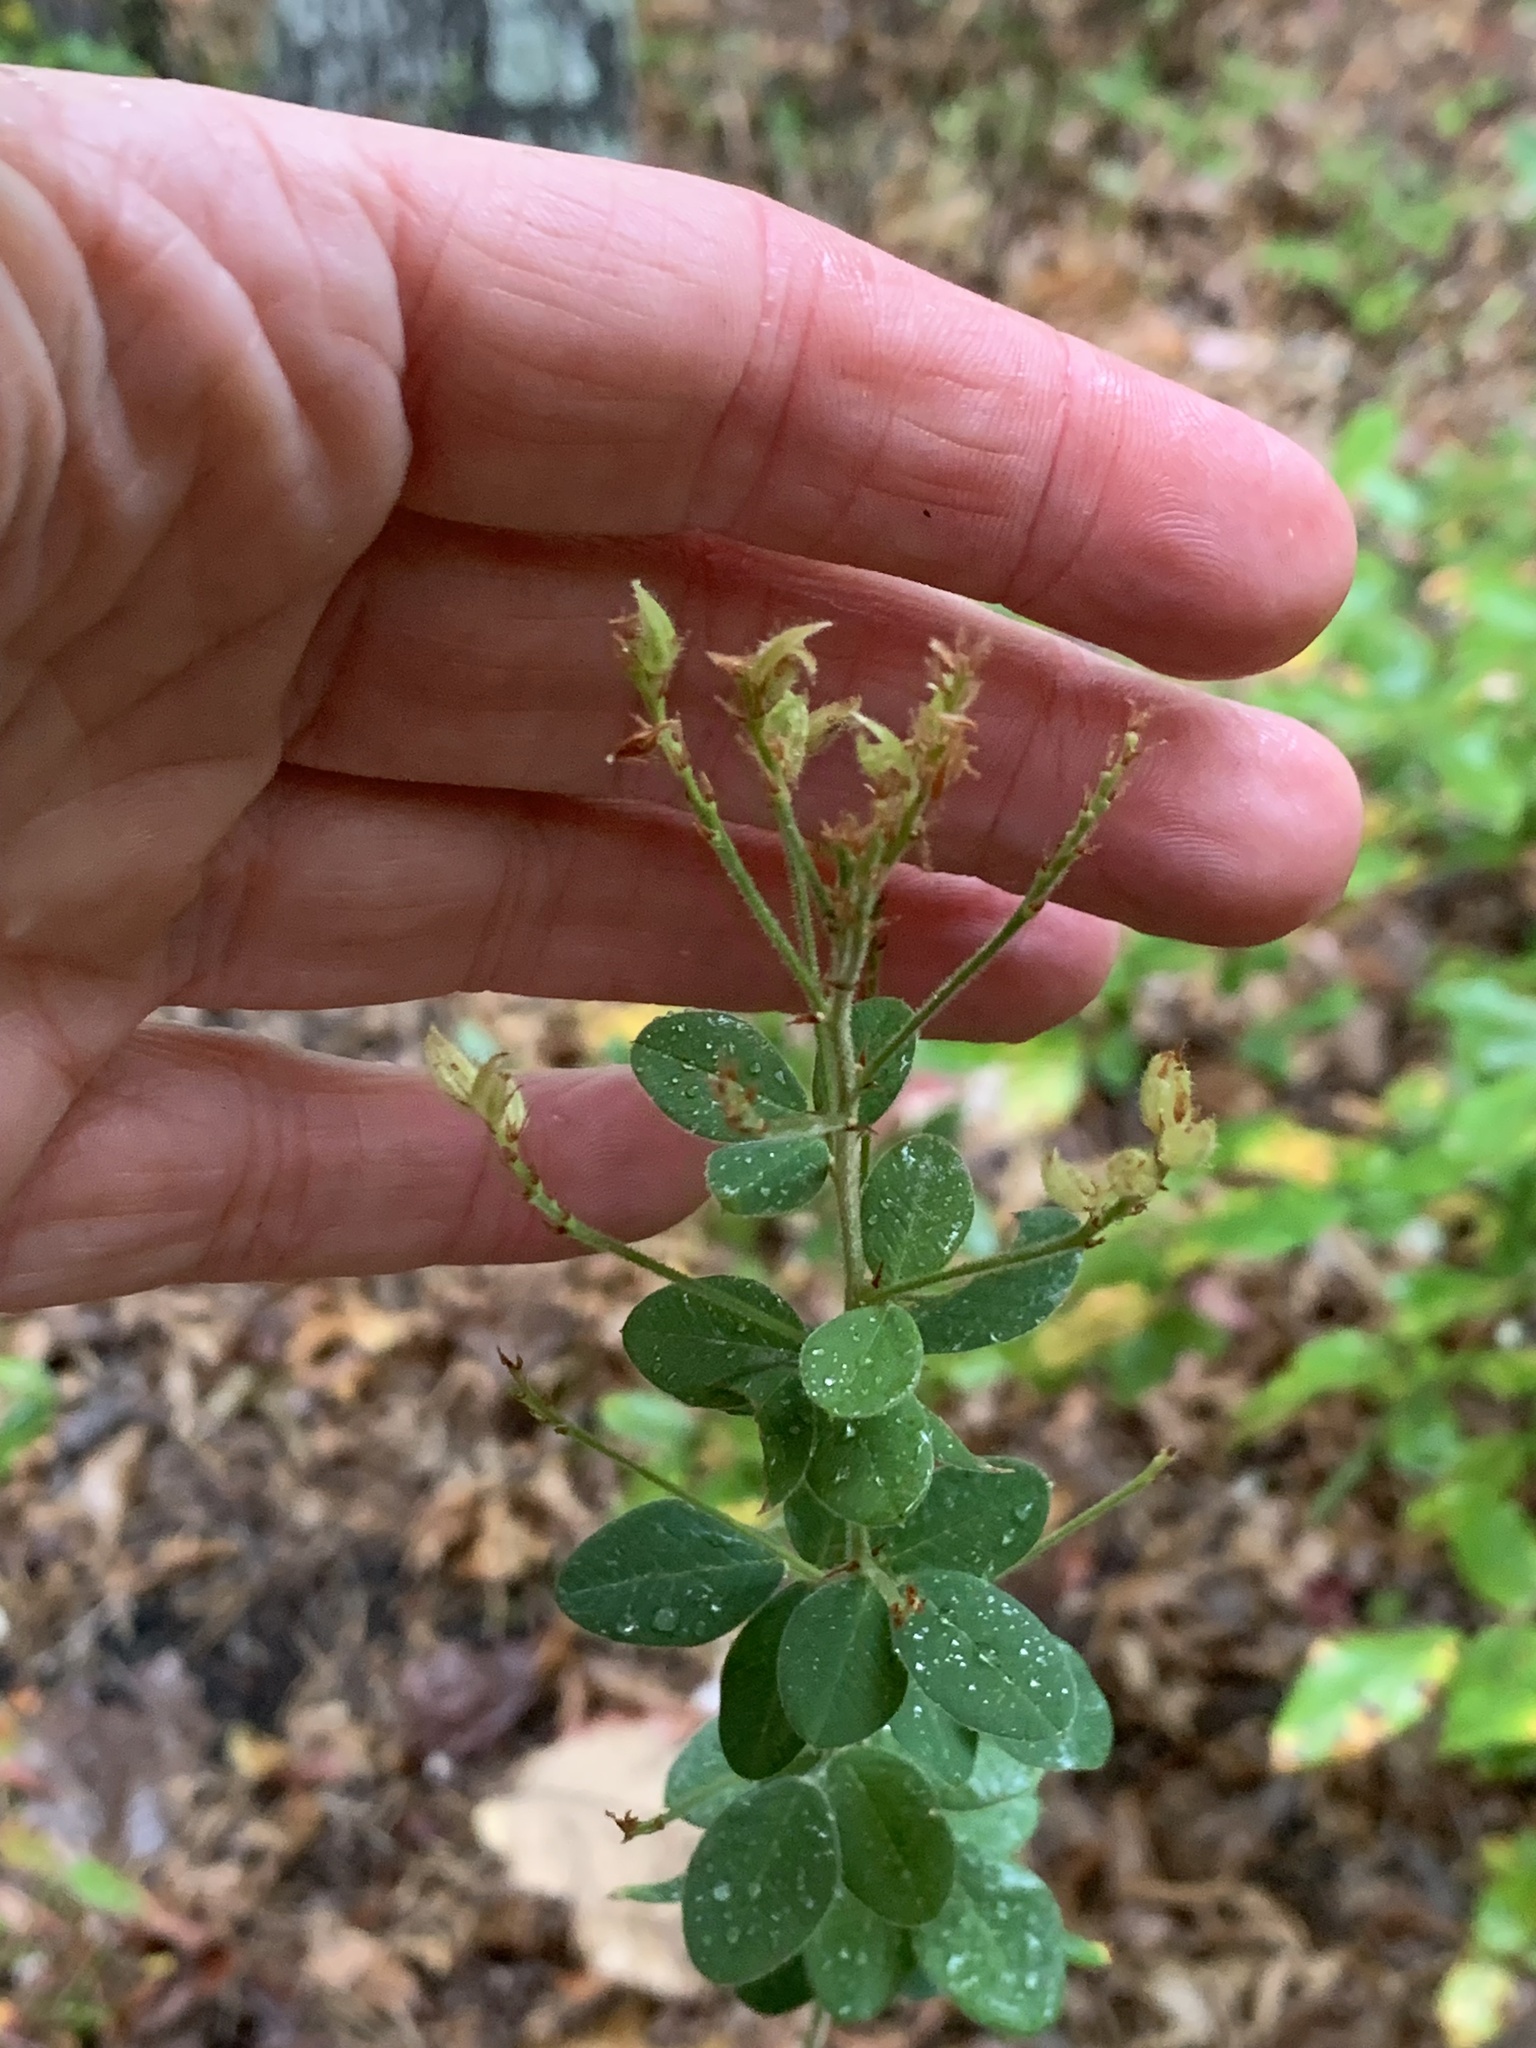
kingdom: Plantae
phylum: Tracheophyta
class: Magnoliopsida
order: Fabales
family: Fabaceae
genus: Lespedeza
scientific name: Lespedeza hirta
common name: Hairy lespedeza
